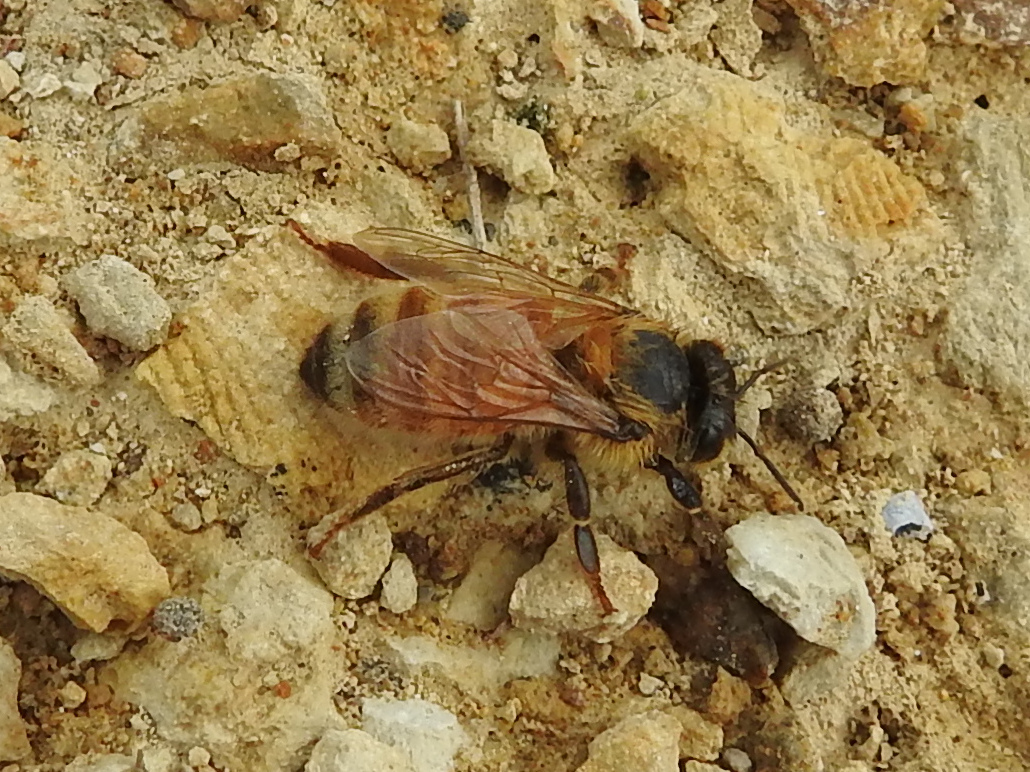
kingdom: Animalia
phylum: Arthropoda
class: Insecta
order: Hymenoptera
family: Apidae
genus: Apis
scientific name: Apis mellifera
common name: Honey bee
